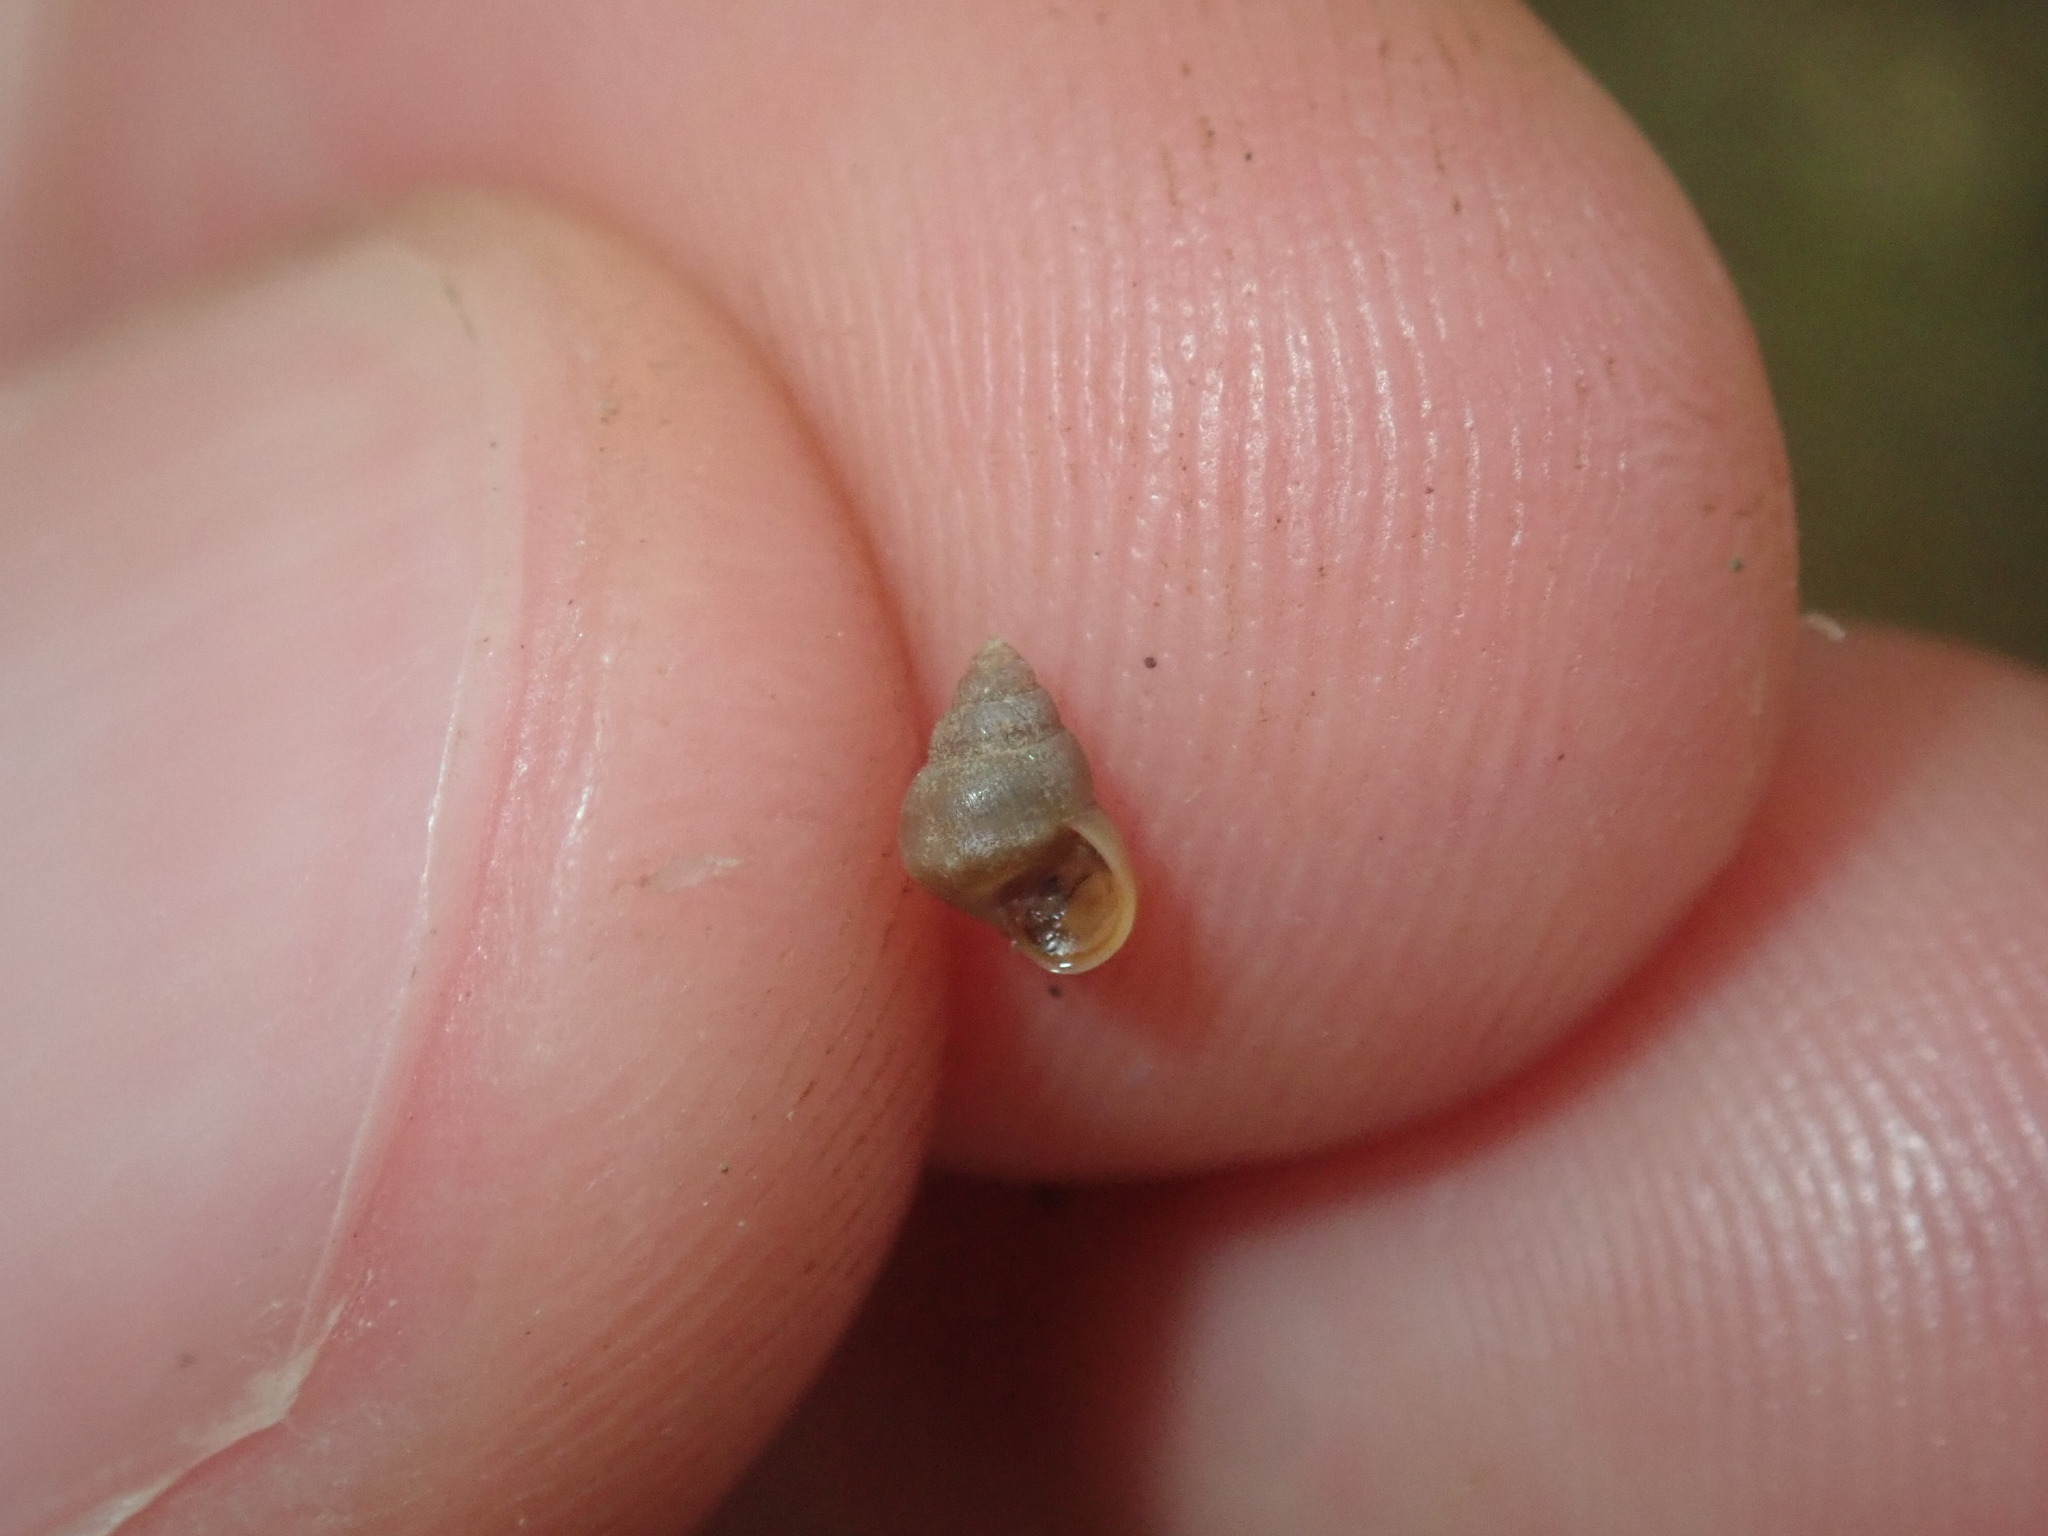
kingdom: Animalia
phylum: Mollusca
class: Gastropoda
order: Littorinimorpha
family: Assimineidae
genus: Cryptassiminea
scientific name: Cryptassiminea tasmanica
